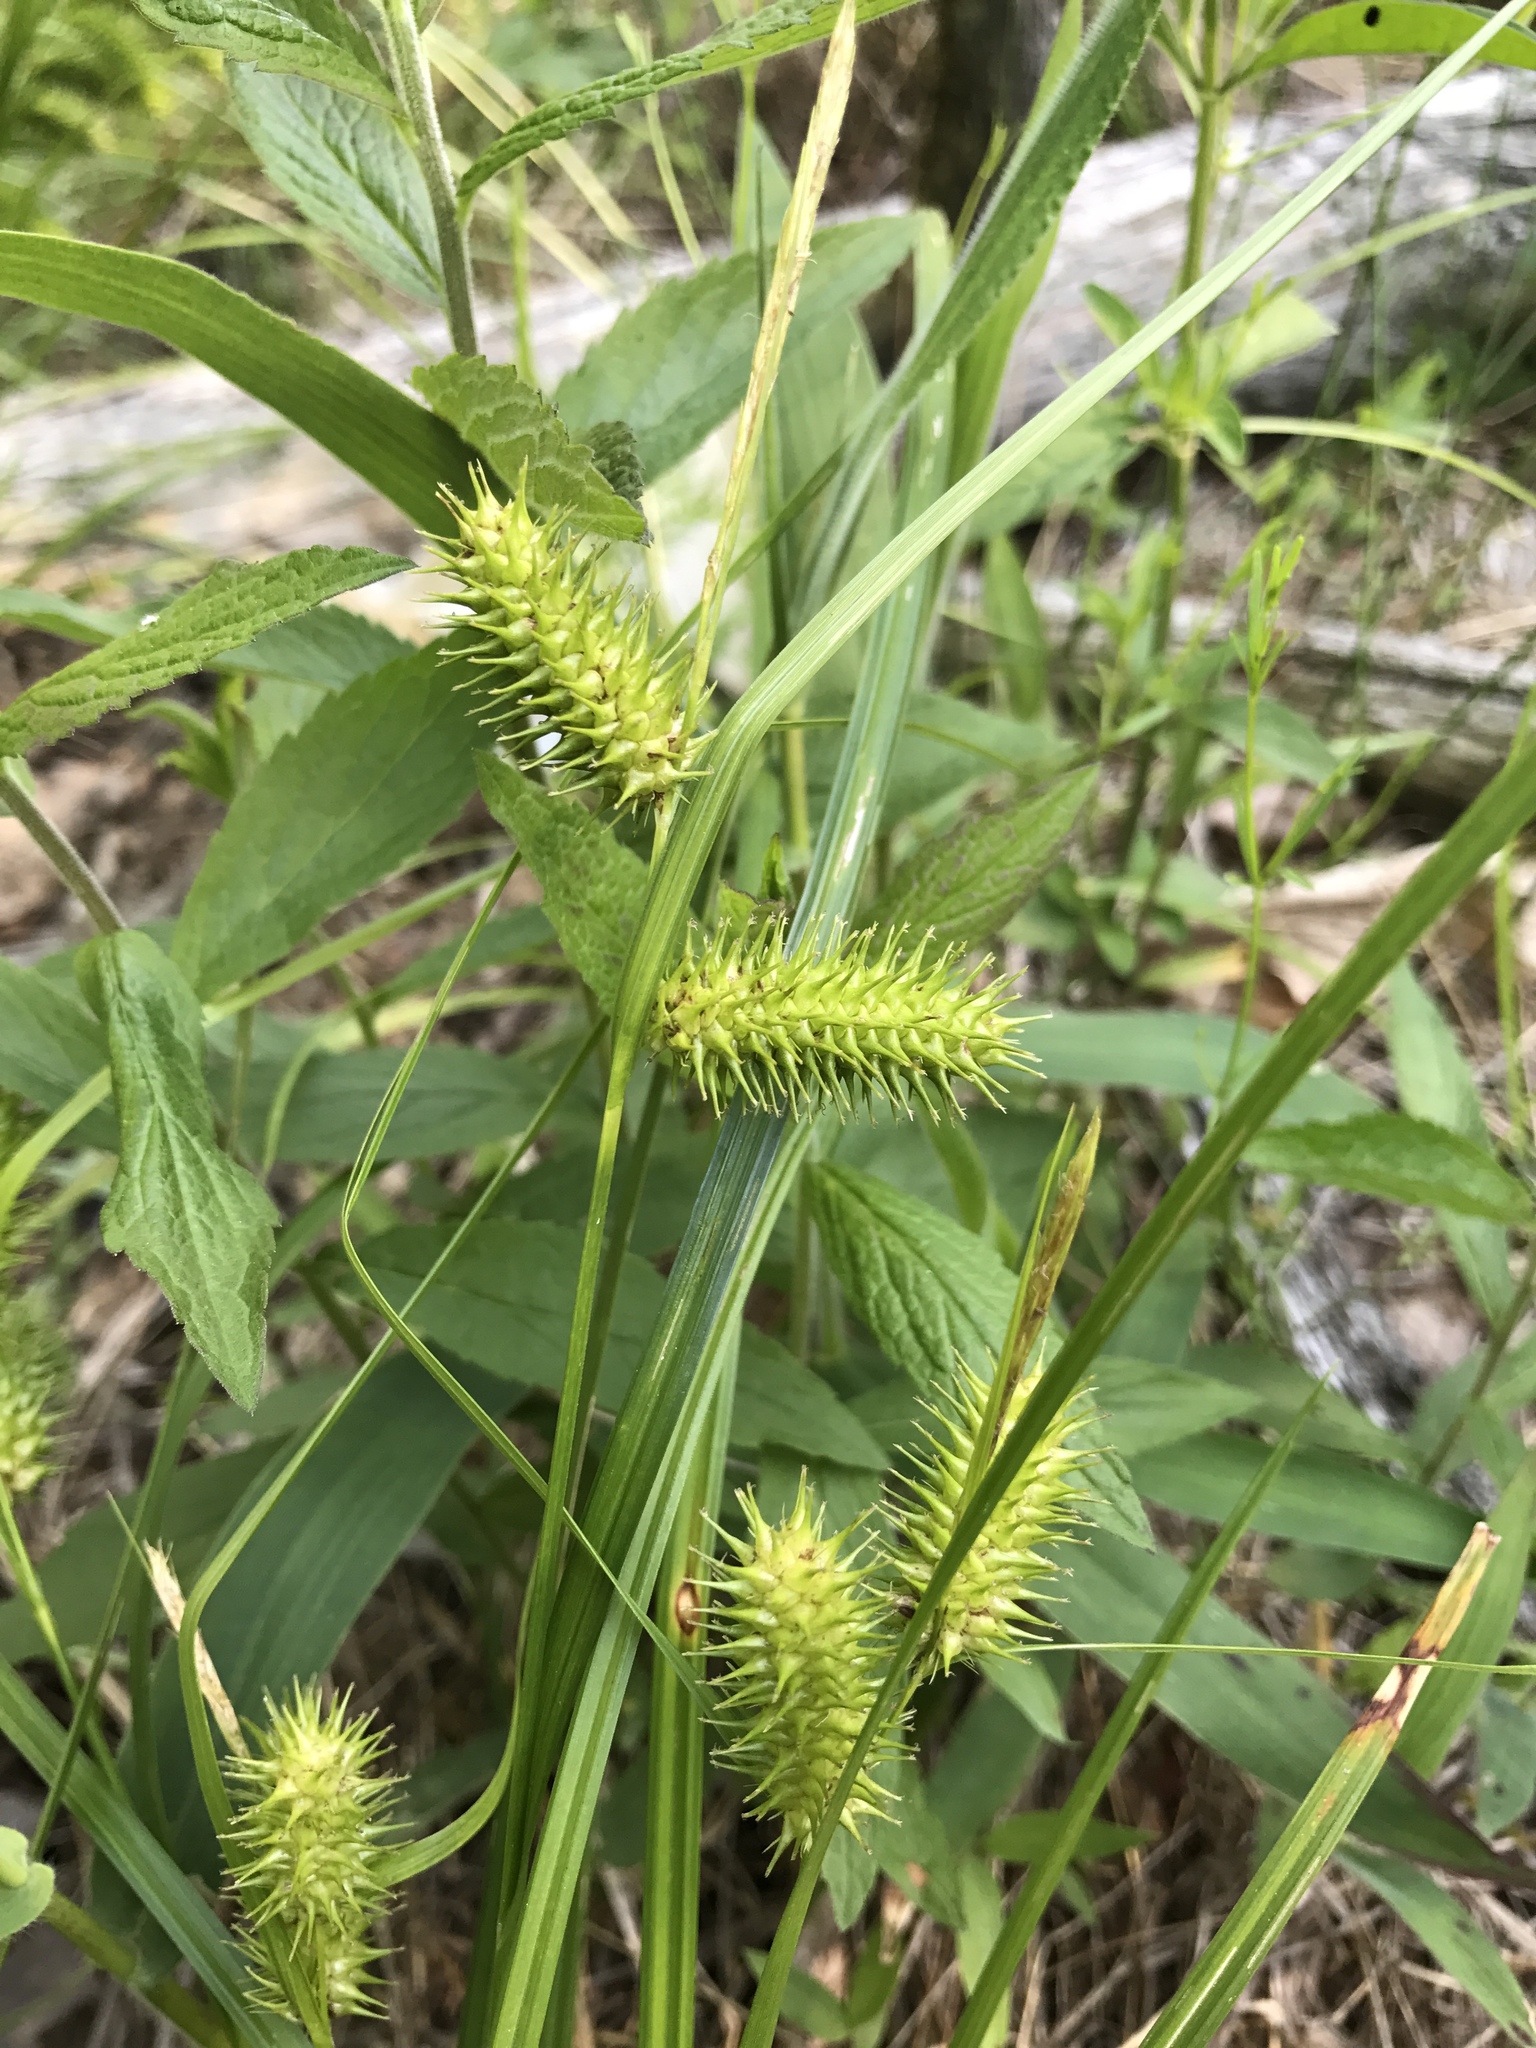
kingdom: Plantae
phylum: Tracheophyta
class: Liliopsida
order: Poales
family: Cyperaceae
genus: Carex
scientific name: Carex lurida
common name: Sallow sedge
